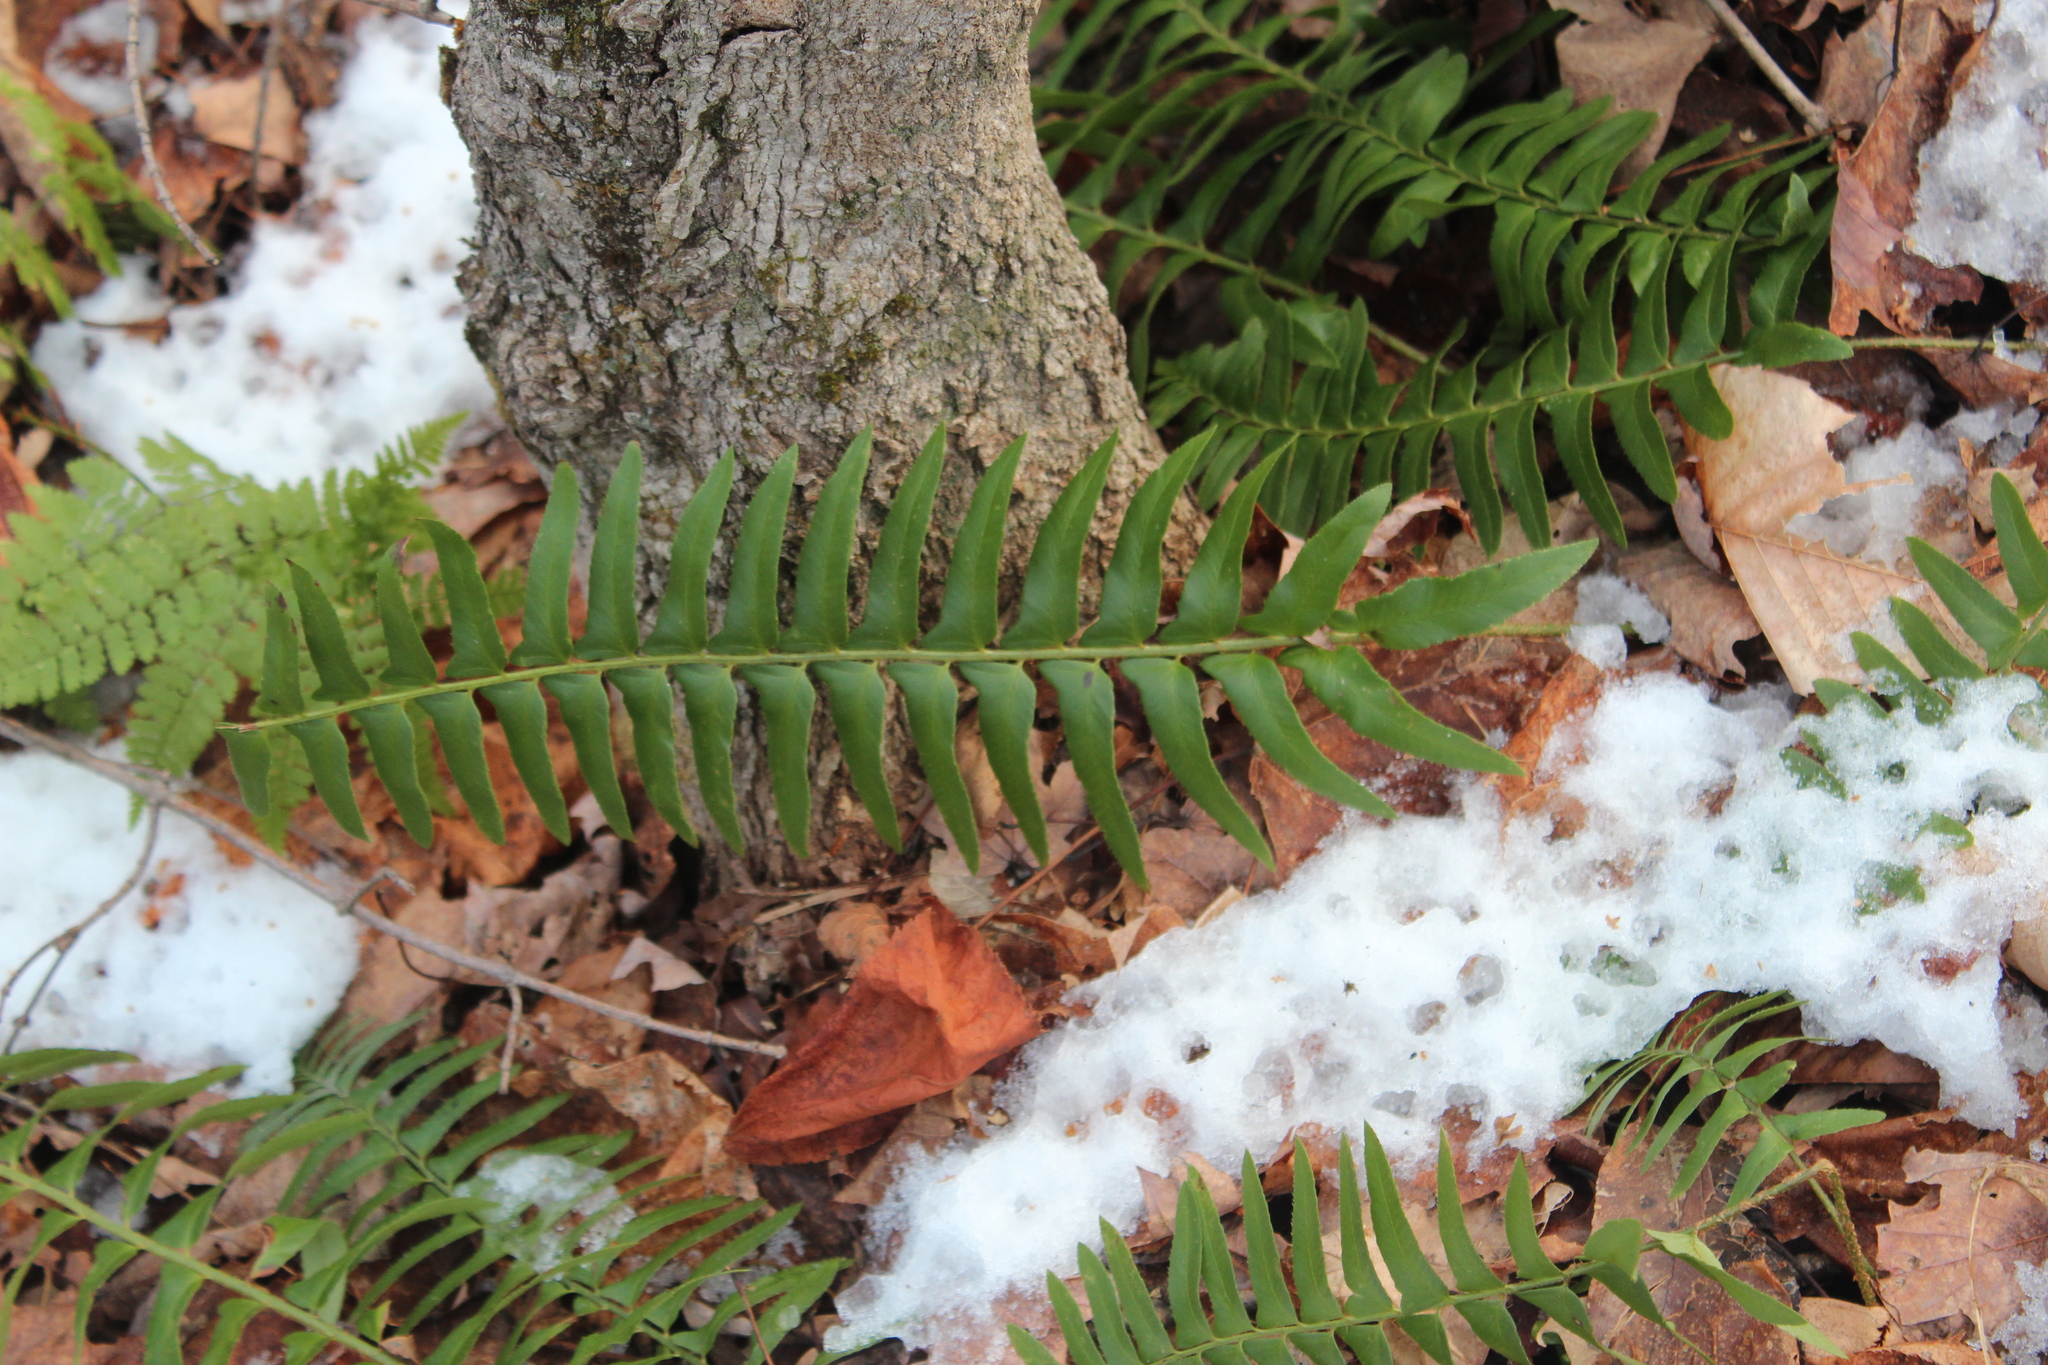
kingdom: Plantae
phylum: Tracheophyta
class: Polypodiopsida
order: Polypodiales
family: Dryopteridaceae
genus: Polystichum
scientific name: Polystichum acrostichoides
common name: Christmas fern
